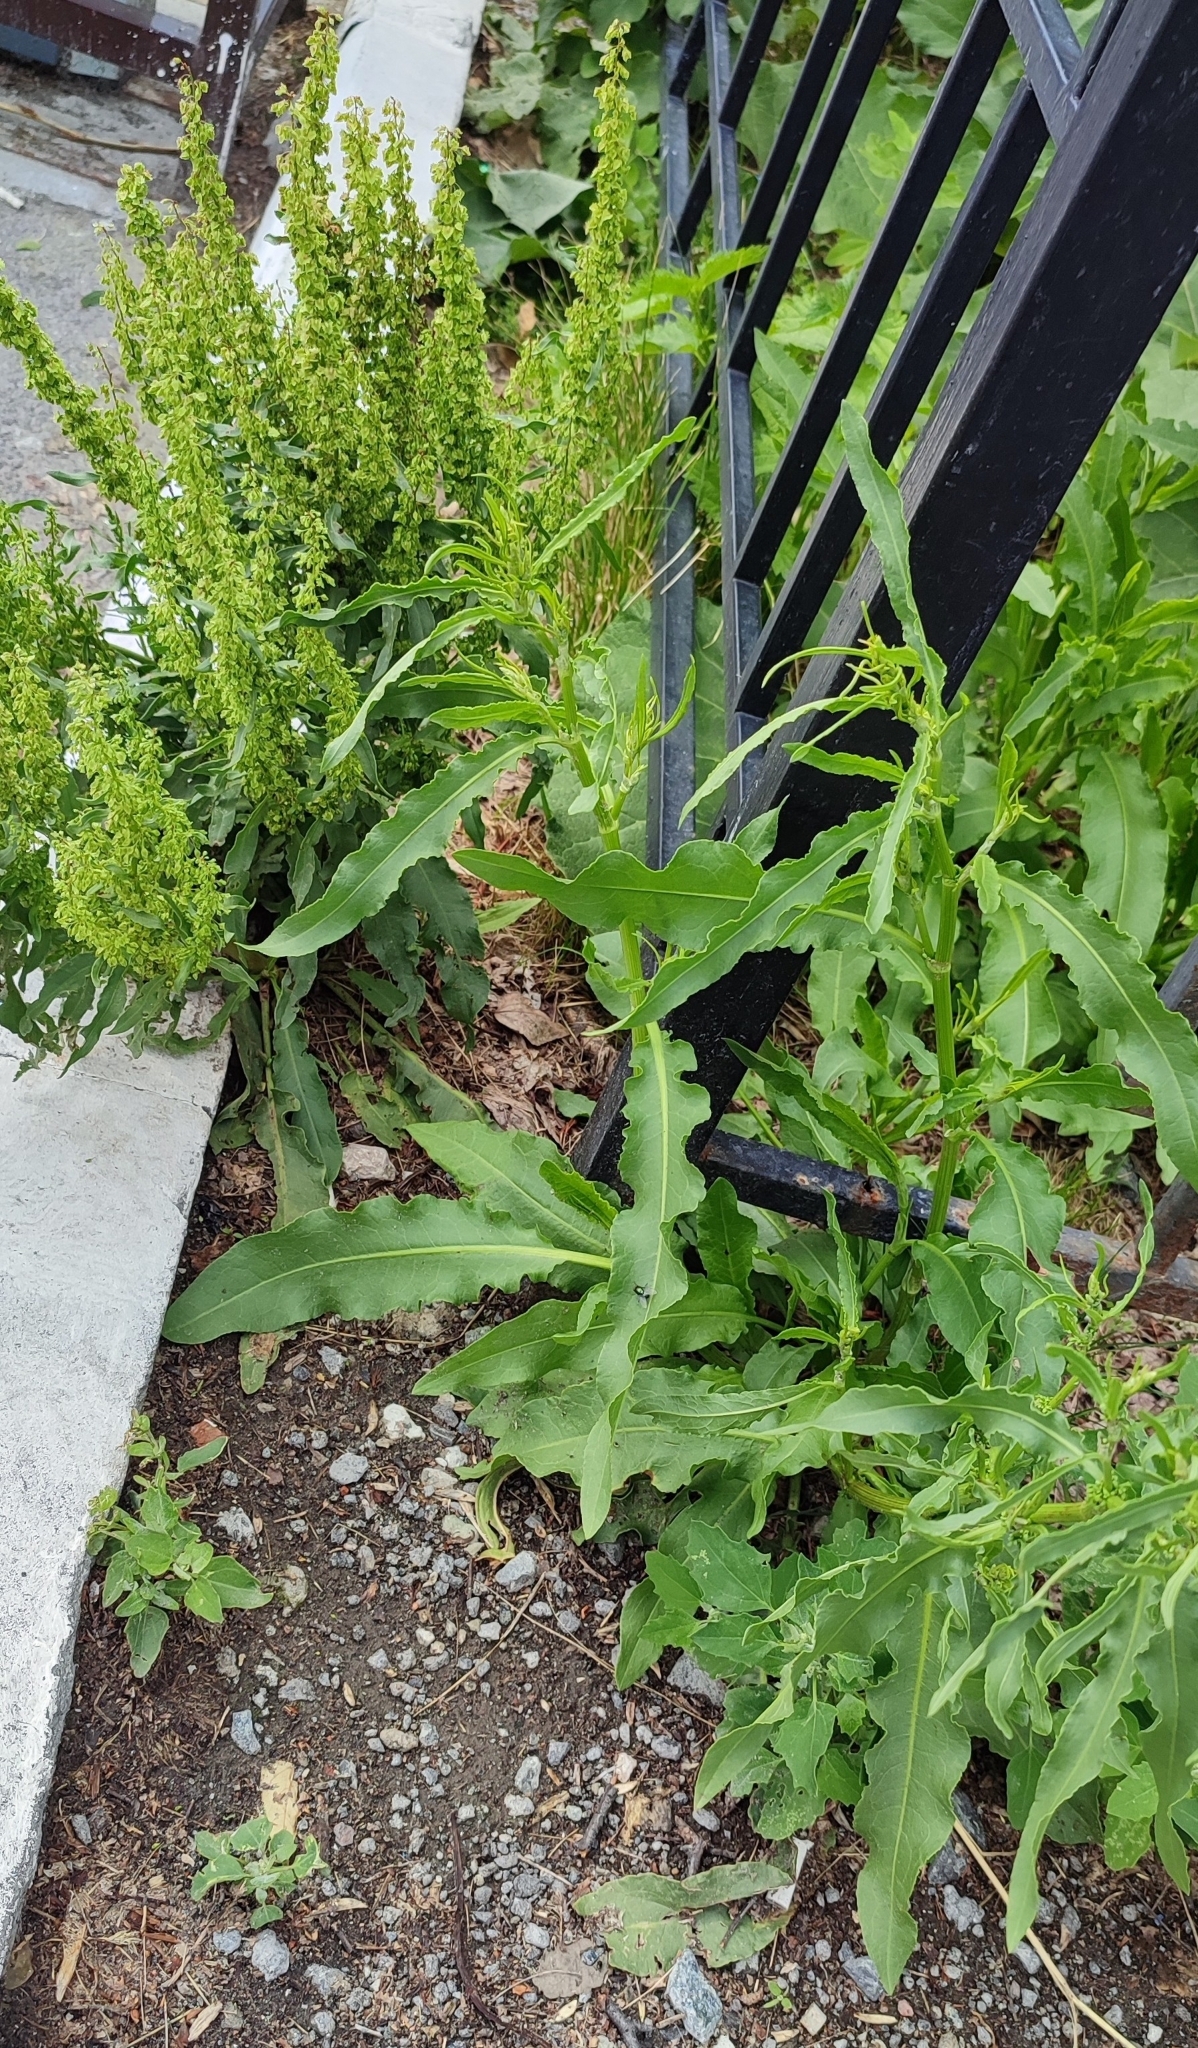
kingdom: Plantae
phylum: Tracheophyta
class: Magnoliopsida
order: Caryophyllales
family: Polygonaceae
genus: Rumex
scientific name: Rumex stenophyllus
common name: Narrowleaf dock
